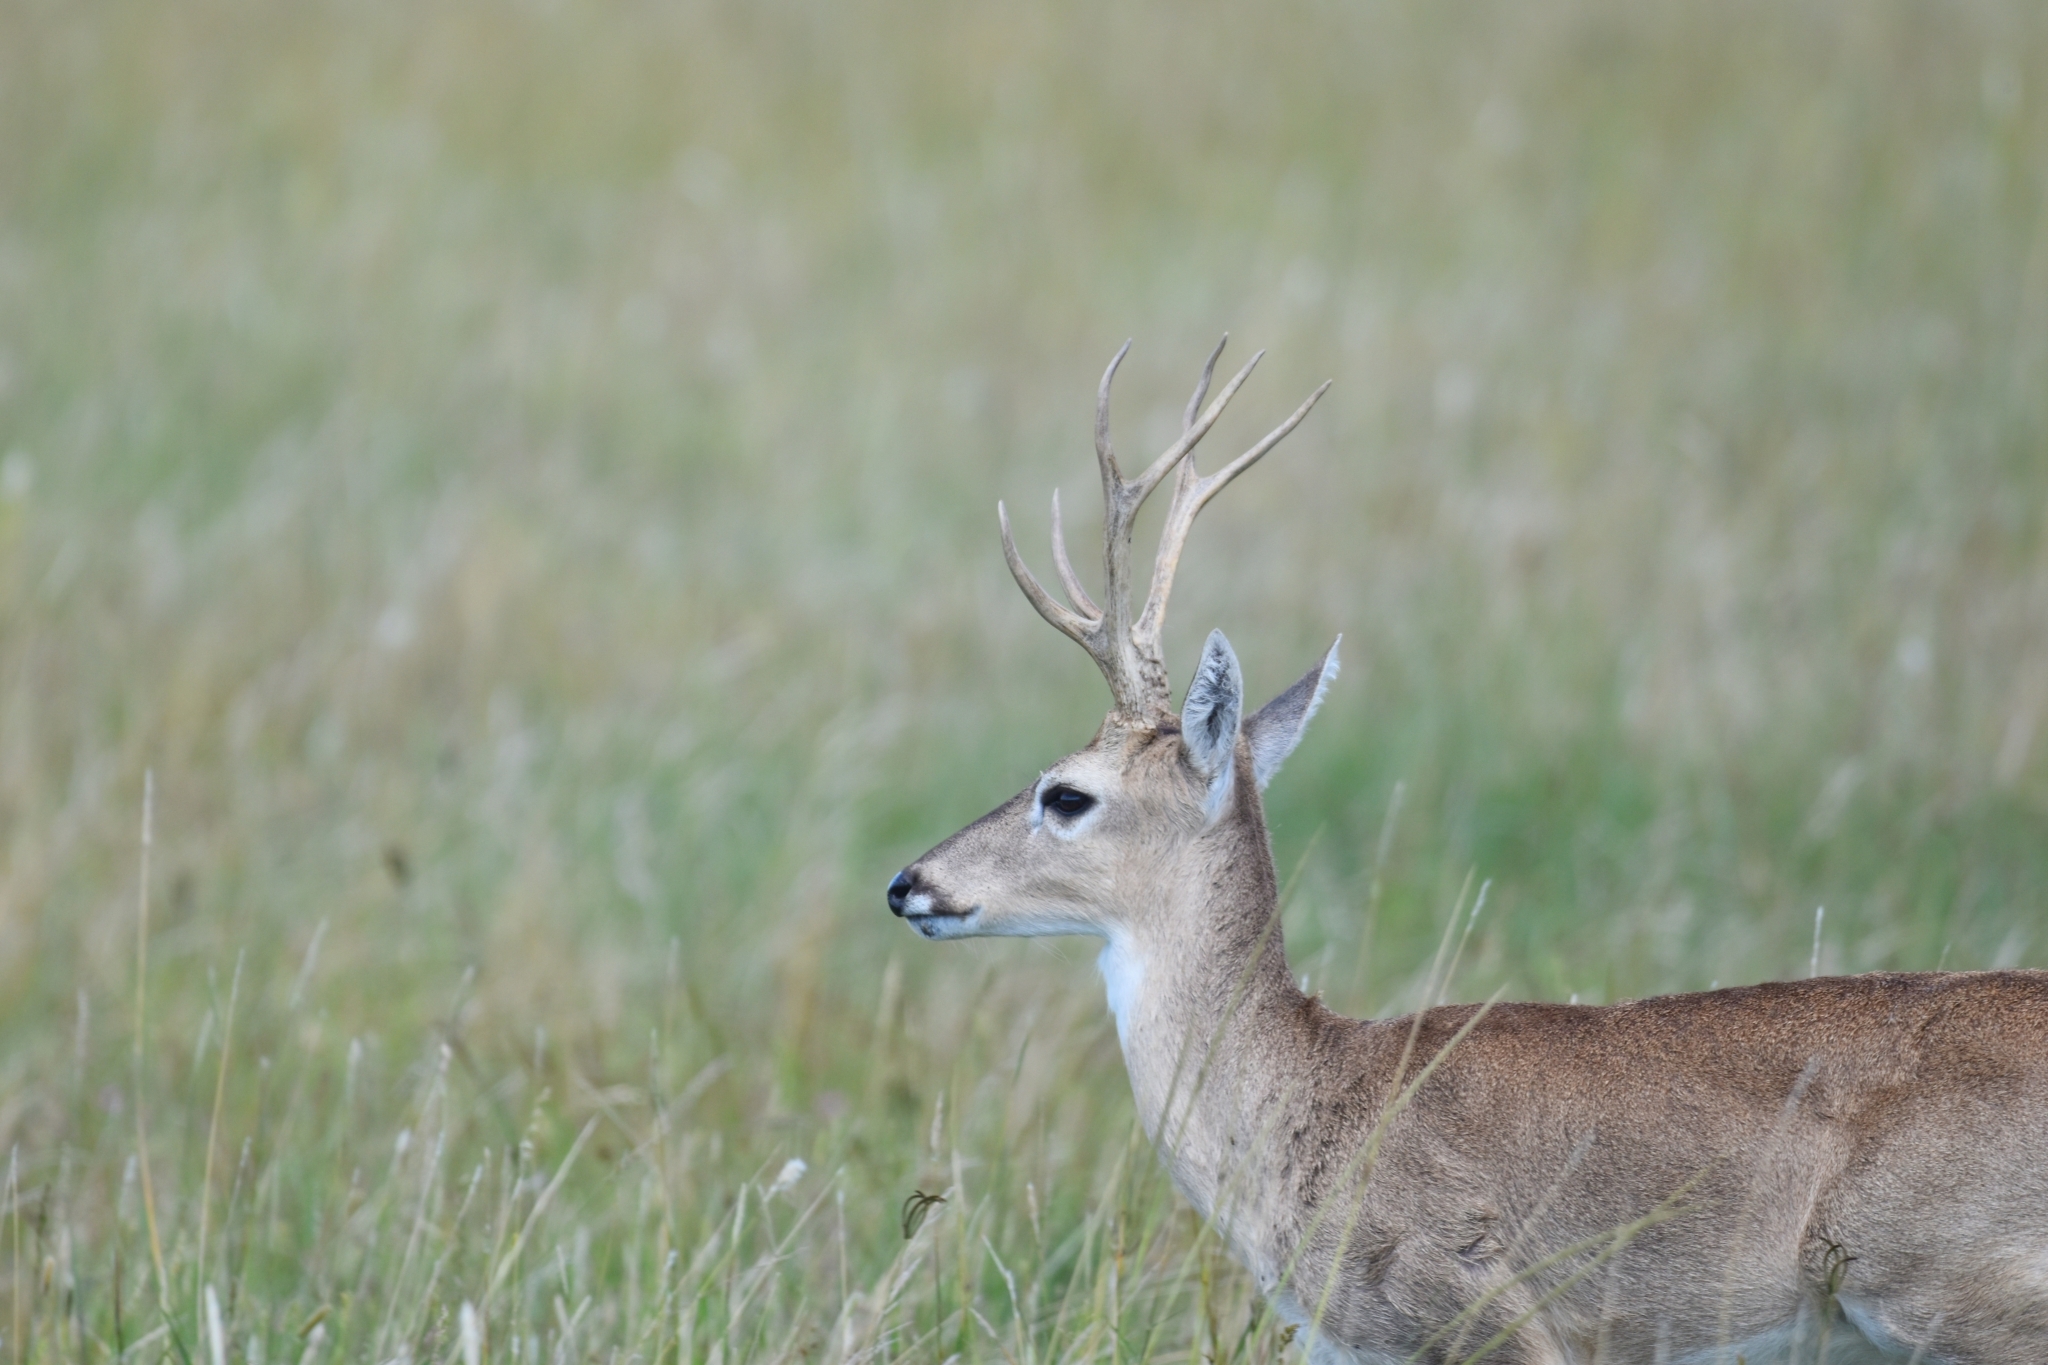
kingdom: Animalia
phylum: Chordata
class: Mammalia
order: Artiodactyla
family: Cervidae
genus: Ozotoceros
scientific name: Ozotoceros bezoarticus
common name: Pampas deer
